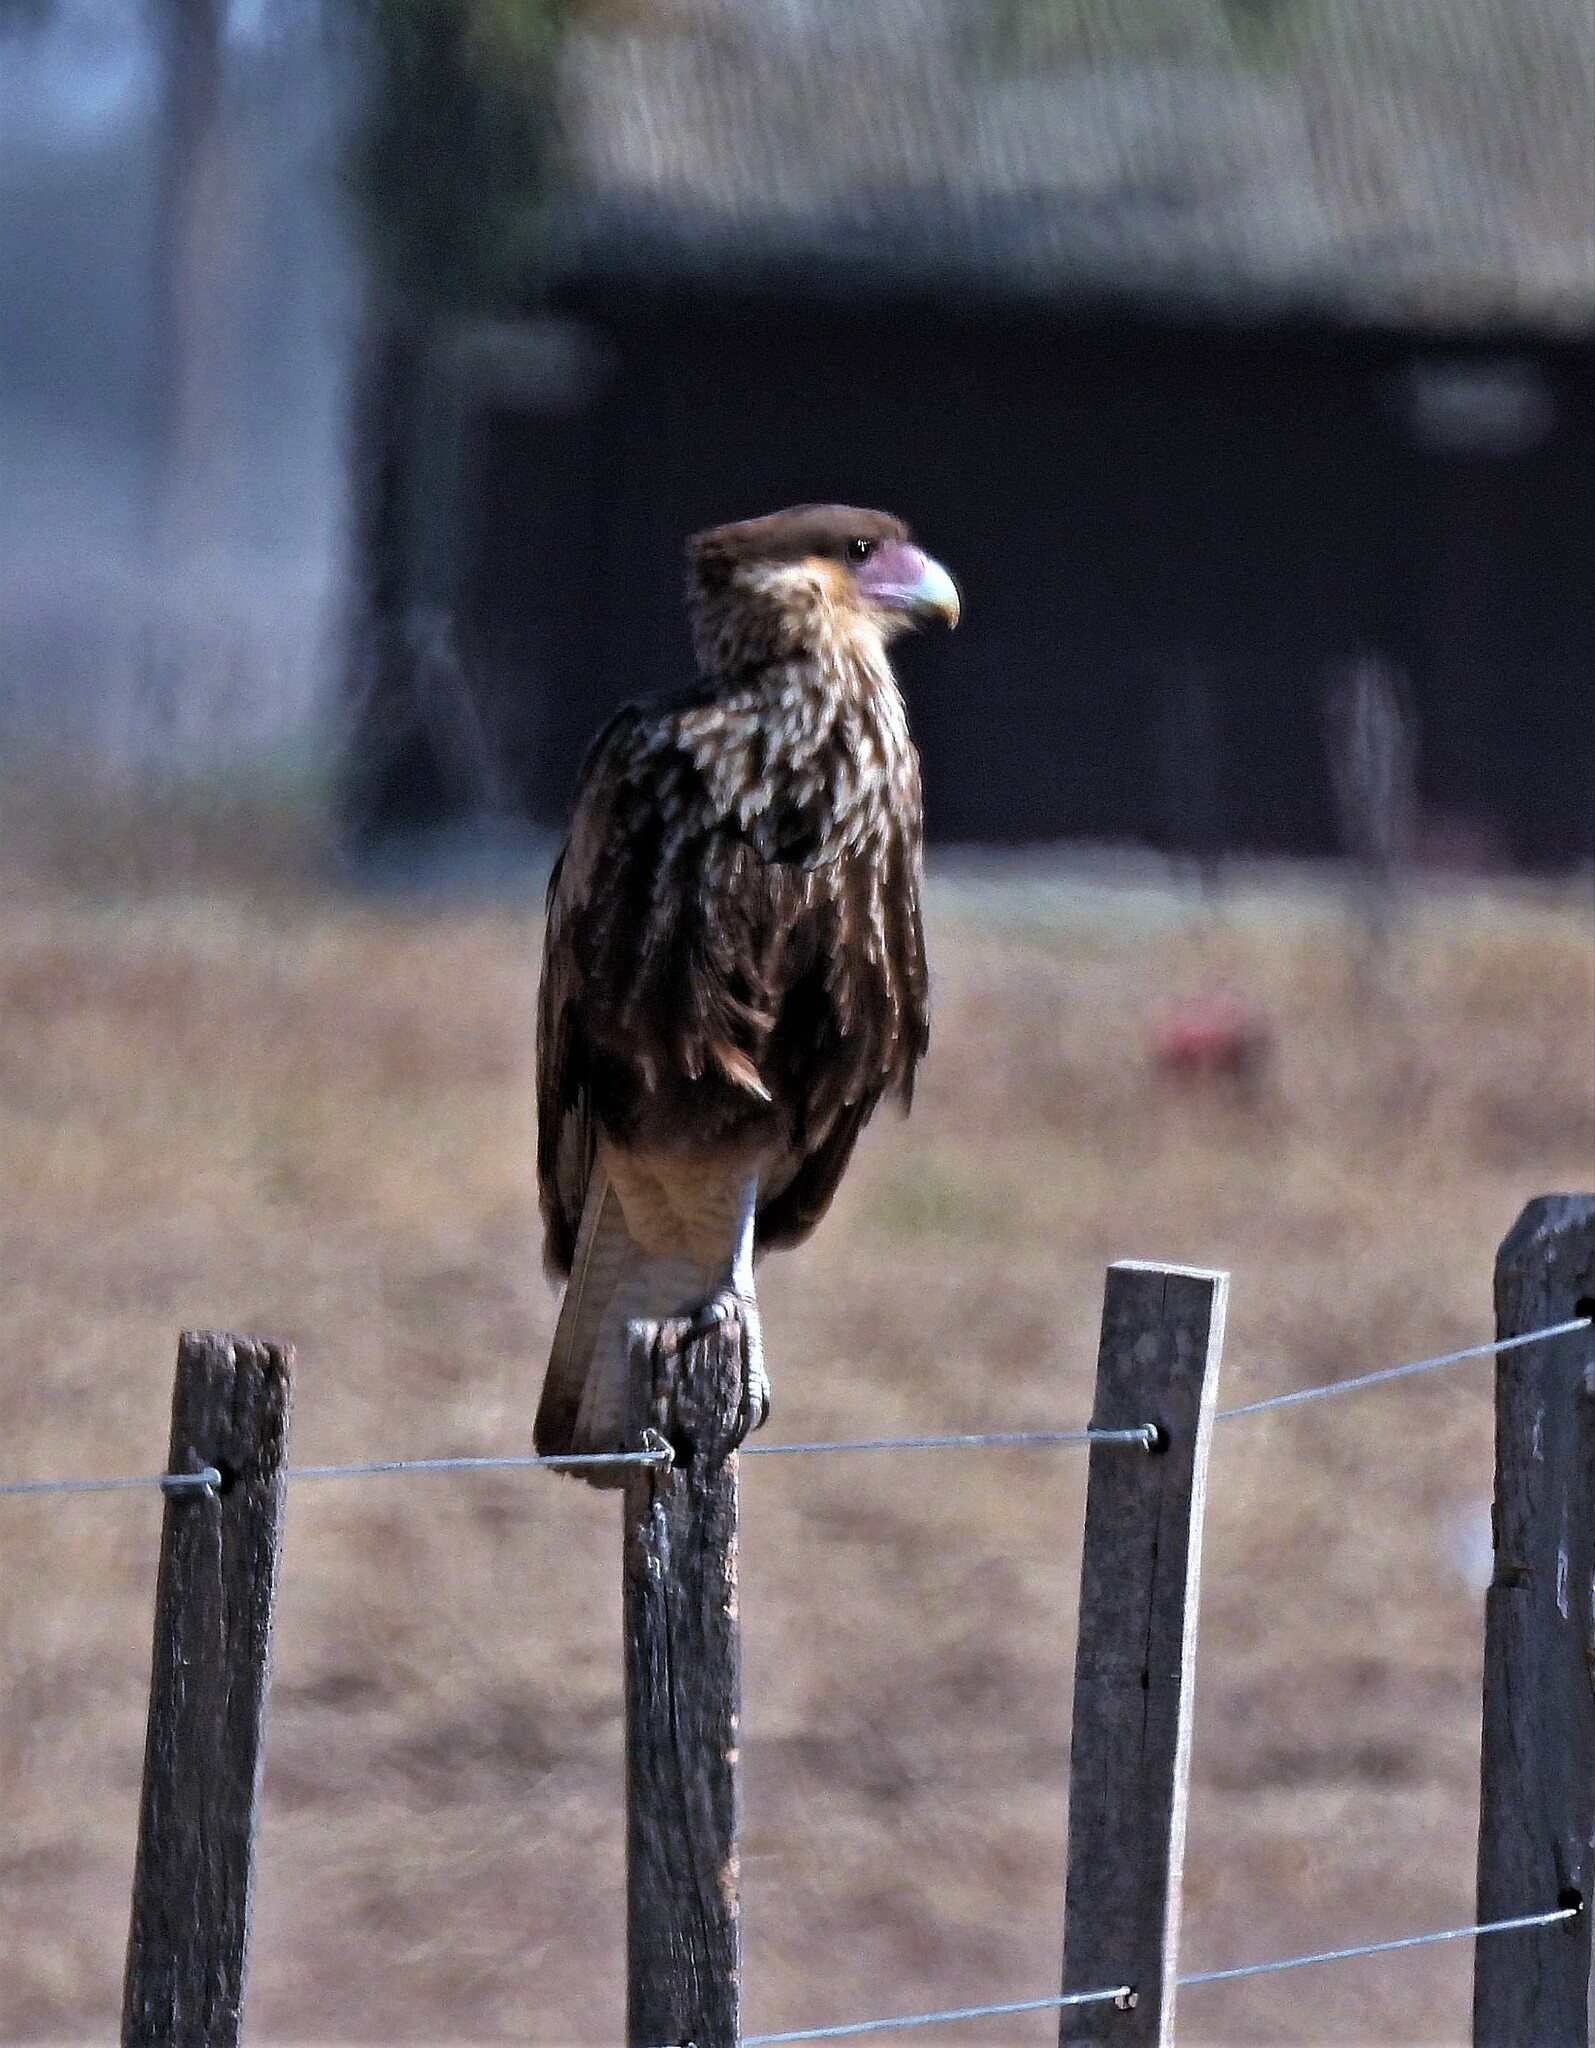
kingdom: Animalia
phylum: Chordata
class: Aves
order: Falconiformes
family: Falconidae
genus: Caracara
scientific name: Caracara plancus
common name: Southern caracara
